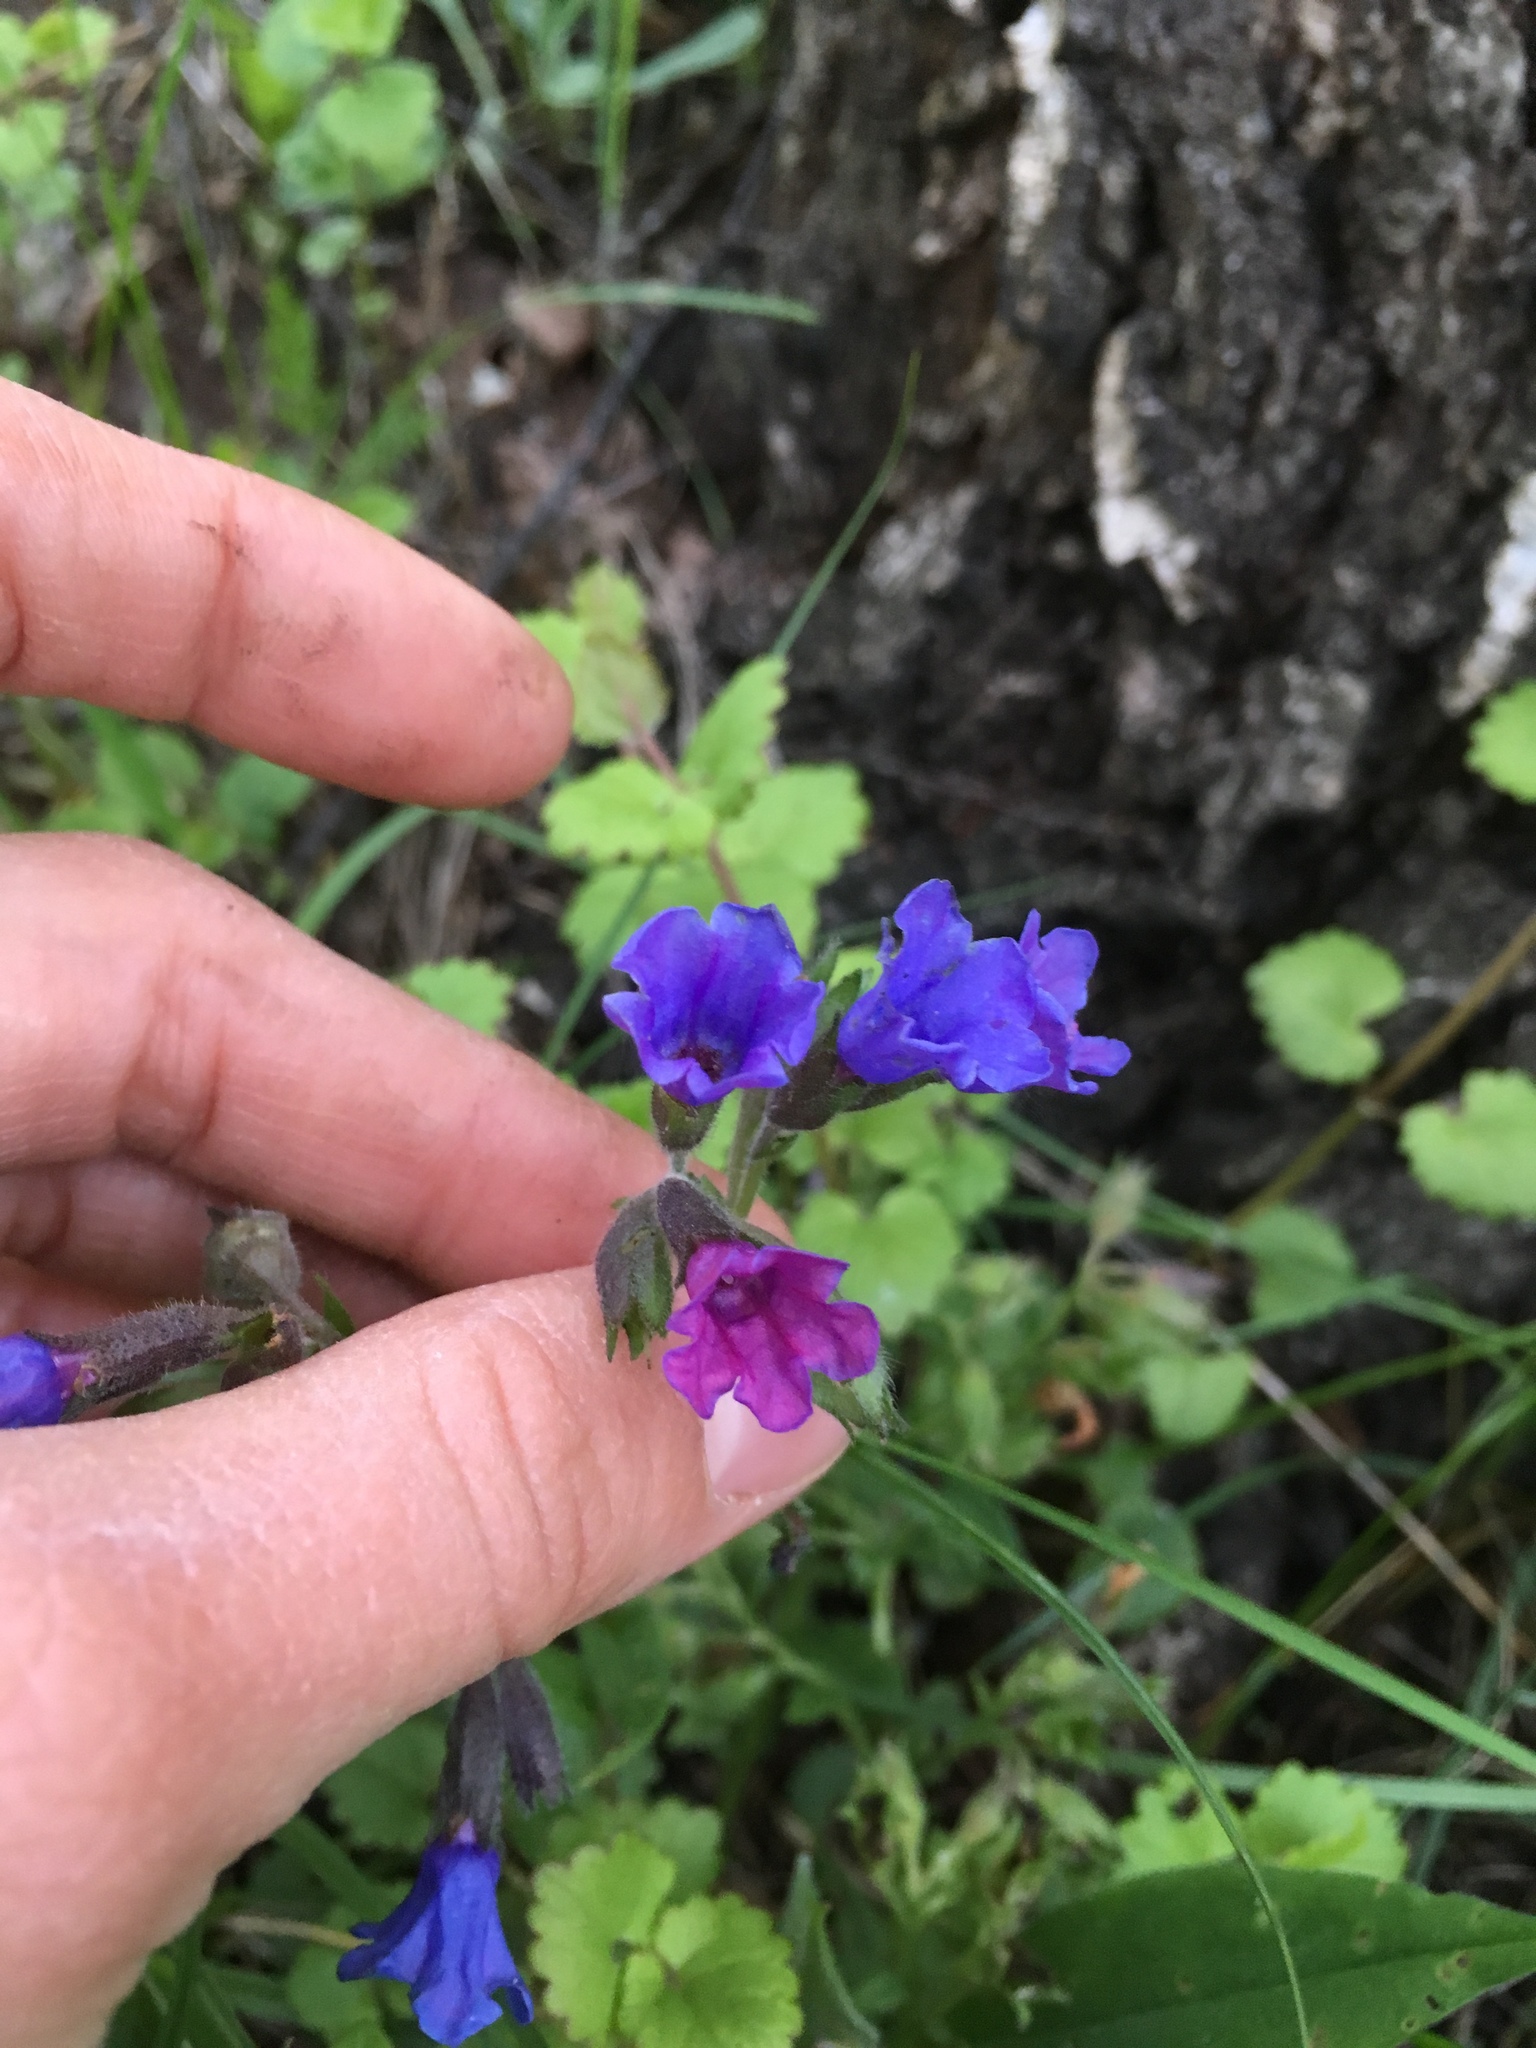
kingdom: Plantae
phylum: Tracheophyta
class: Magnoliopsida
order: Boraginales
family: Boraginaceae
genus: Pulmonaria
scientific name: Pulmonaria obscura
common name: Suffolk lungwort
